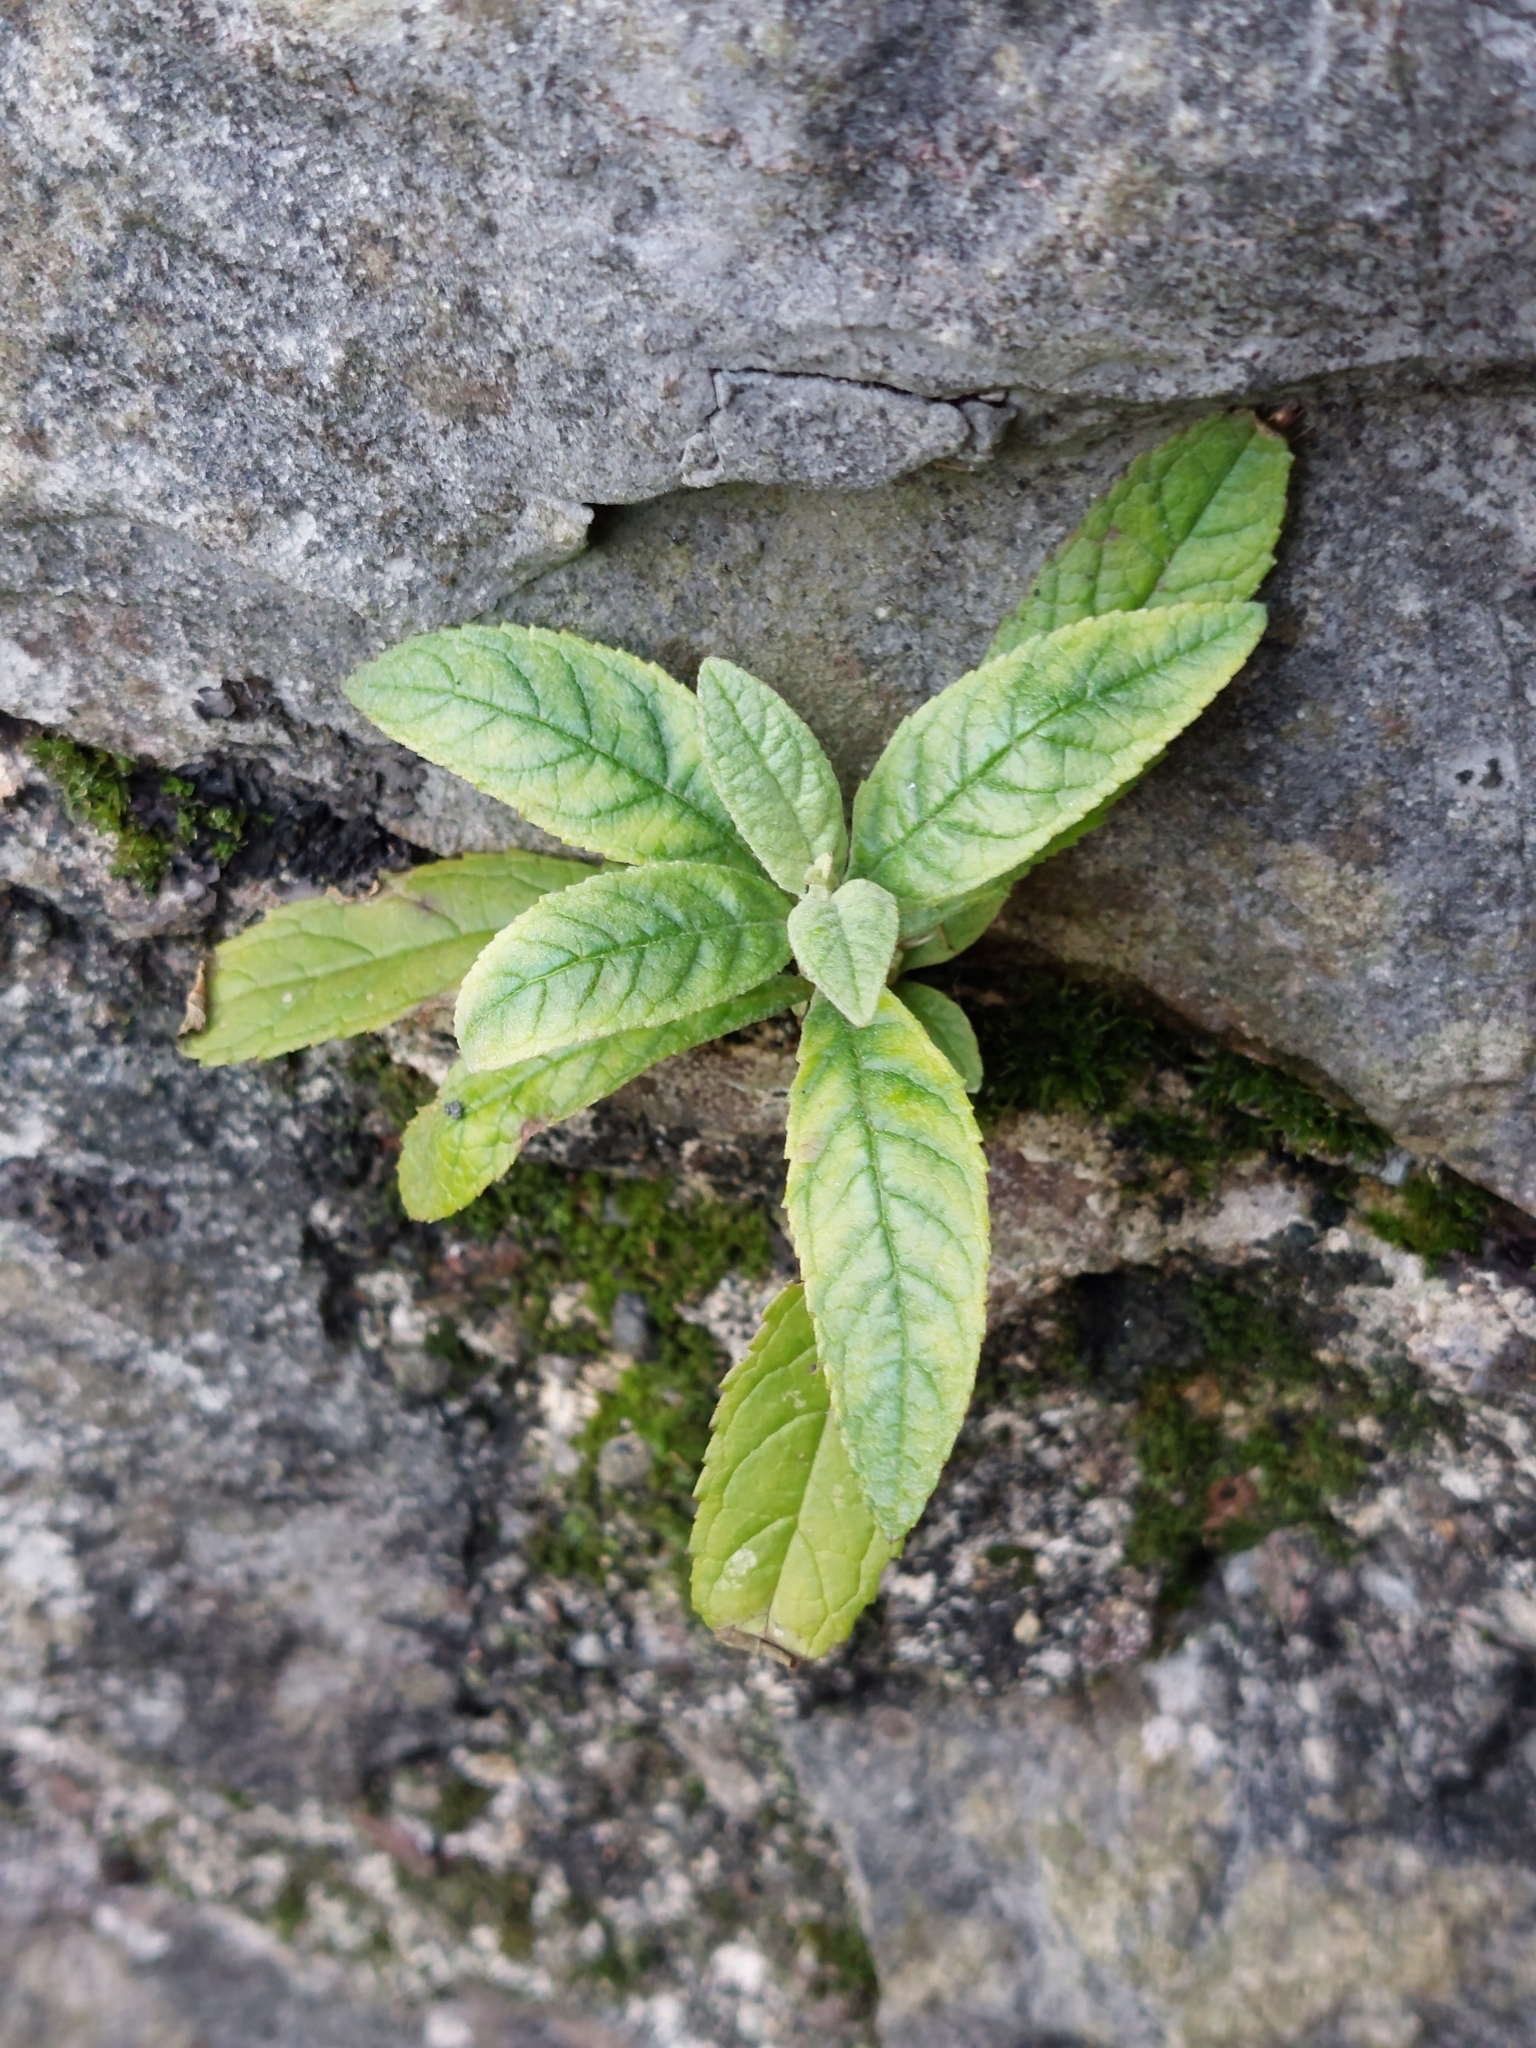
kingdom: Plantae
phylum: Tracheophyta
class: Magnoliopsida
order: Lamiales
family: Scrophulariaceae
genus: Buddleja
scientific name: Buddleja davidii
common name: Butterfly-bush
